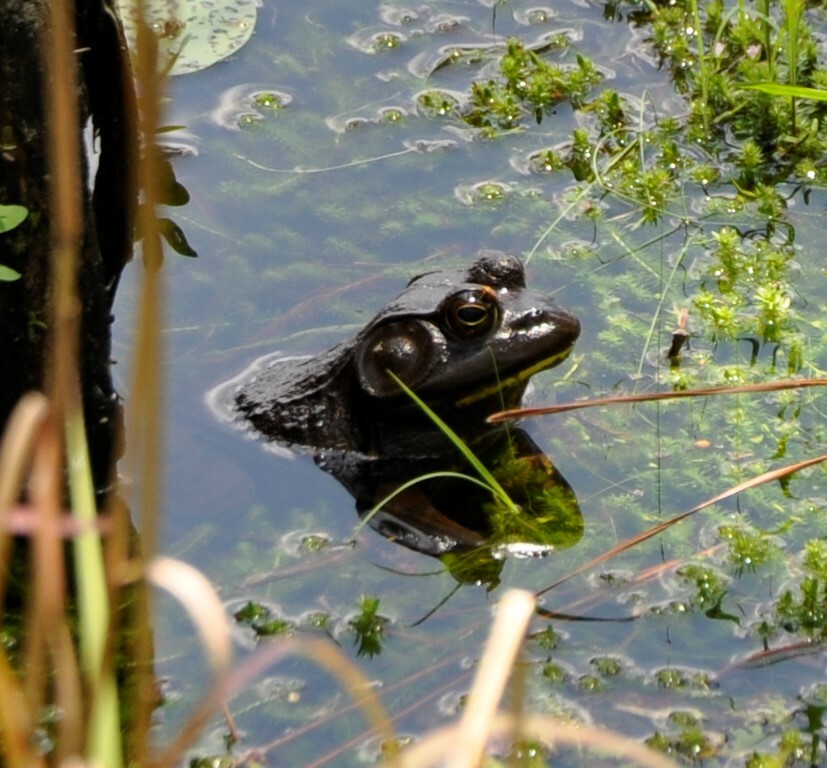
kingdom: Animalia
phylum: Chordata
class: Amphibia
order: Anura
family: Ranidae
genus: Lithobates
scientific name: Lithobates catesbeianus
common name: American bullfrog
